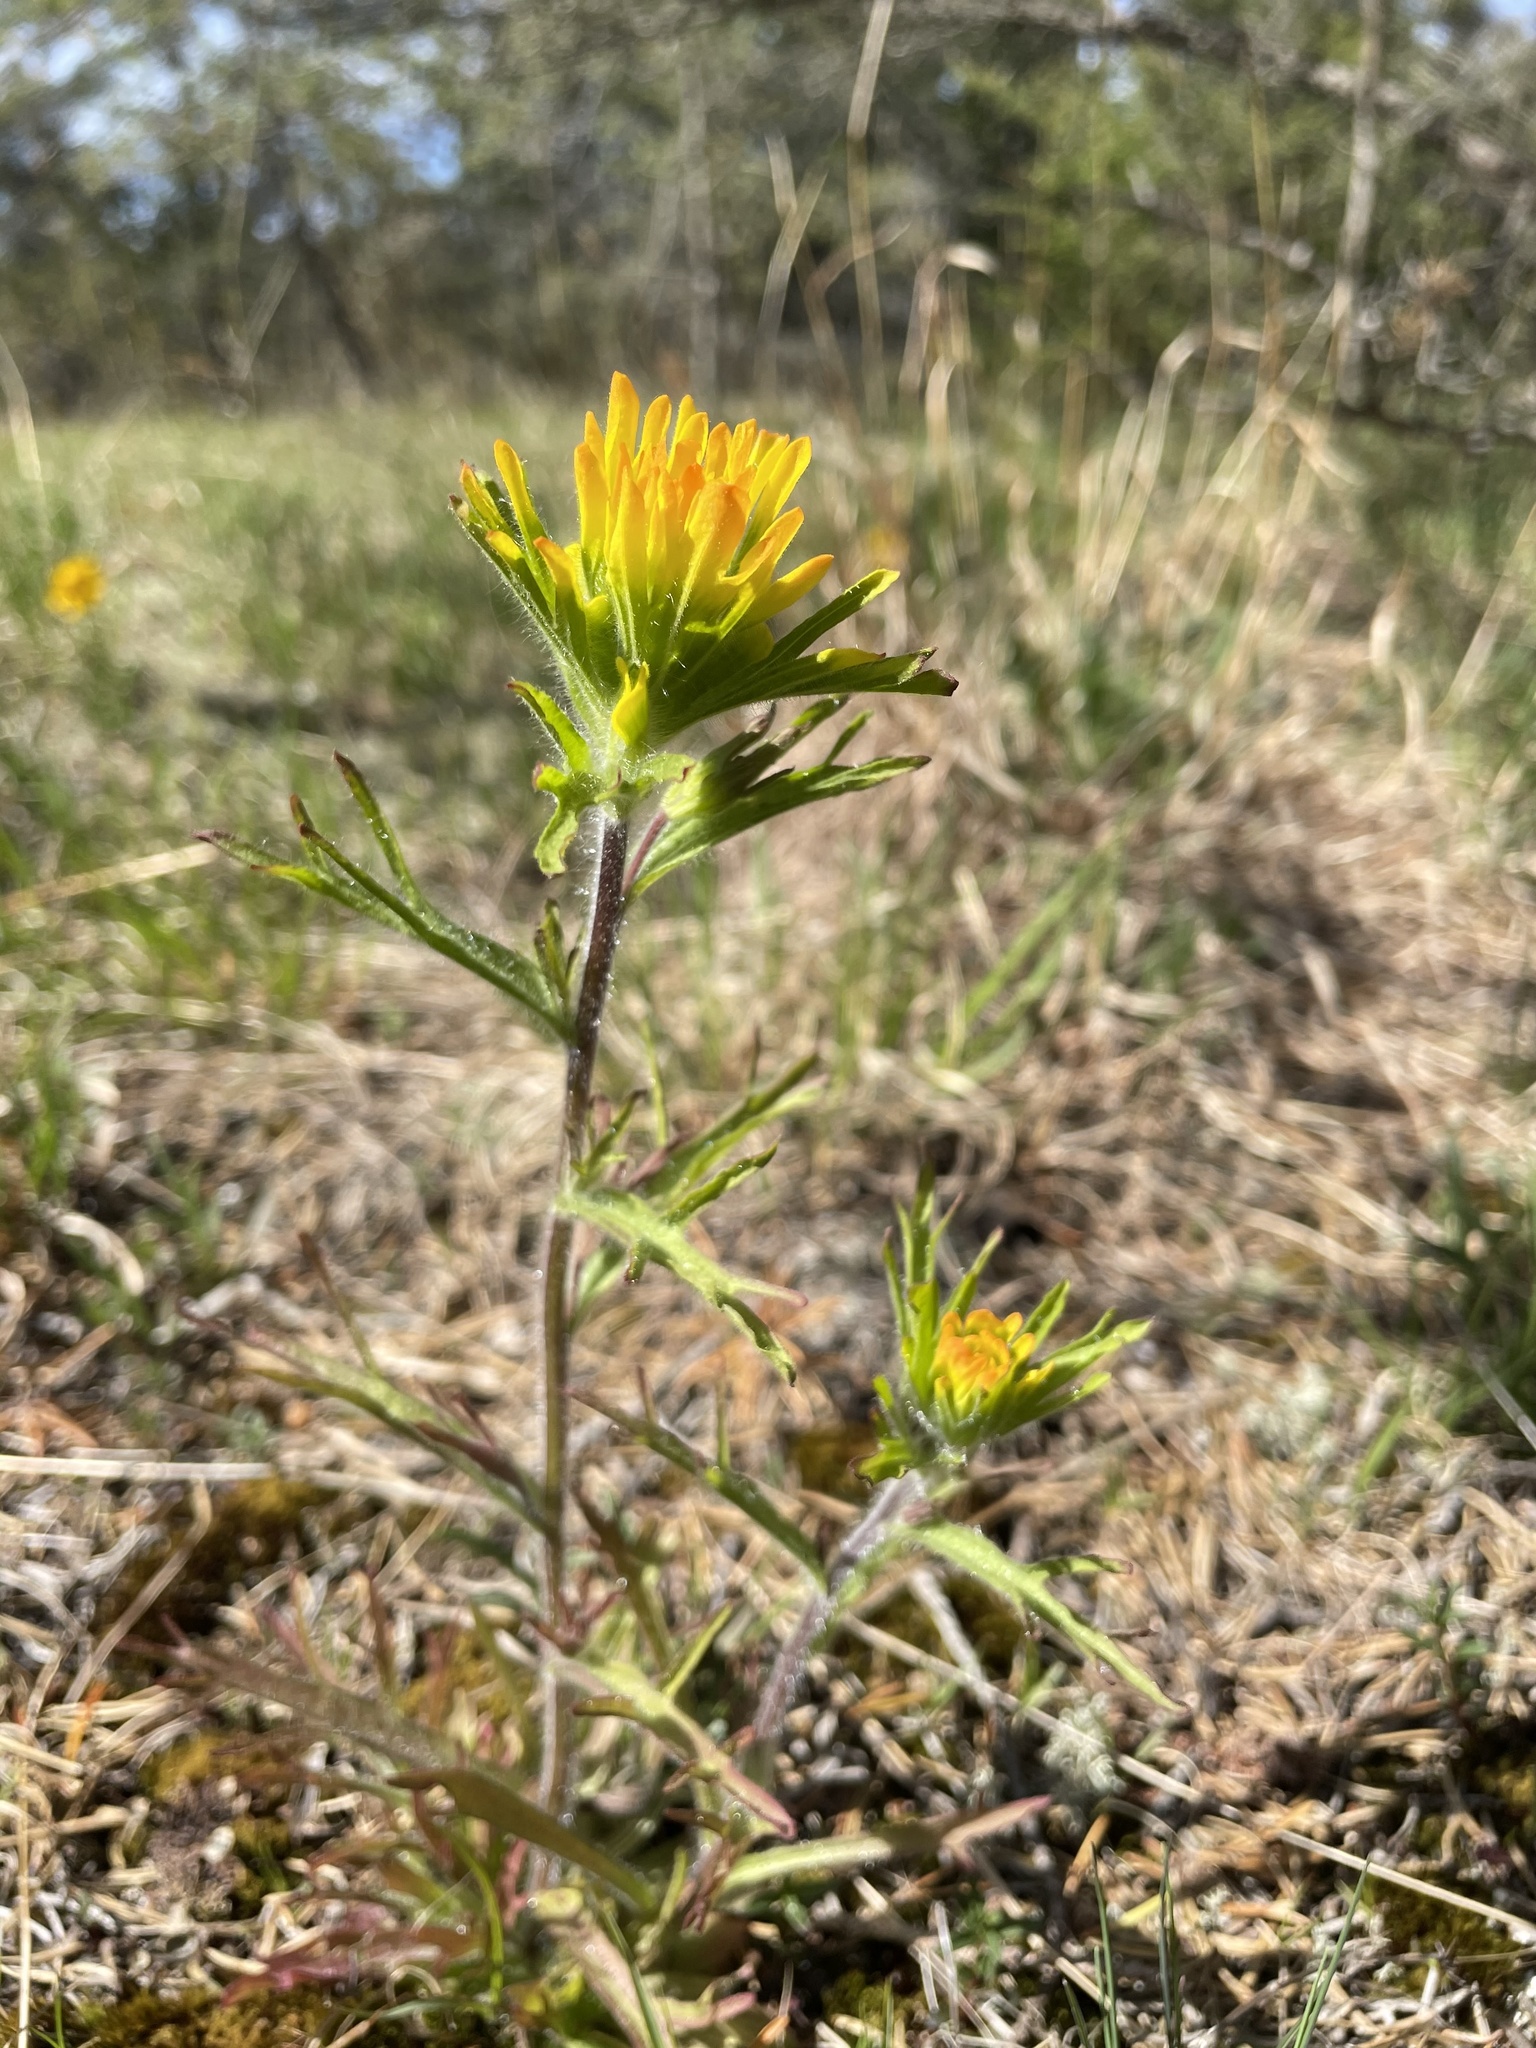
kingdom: Plantae
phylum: Tracheophyta
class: Magnoliopsida
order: Lamiales
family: Orobanchaceae
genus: Castilleja
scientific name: Castilleja coccinea
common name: Scarlet paintbrush
